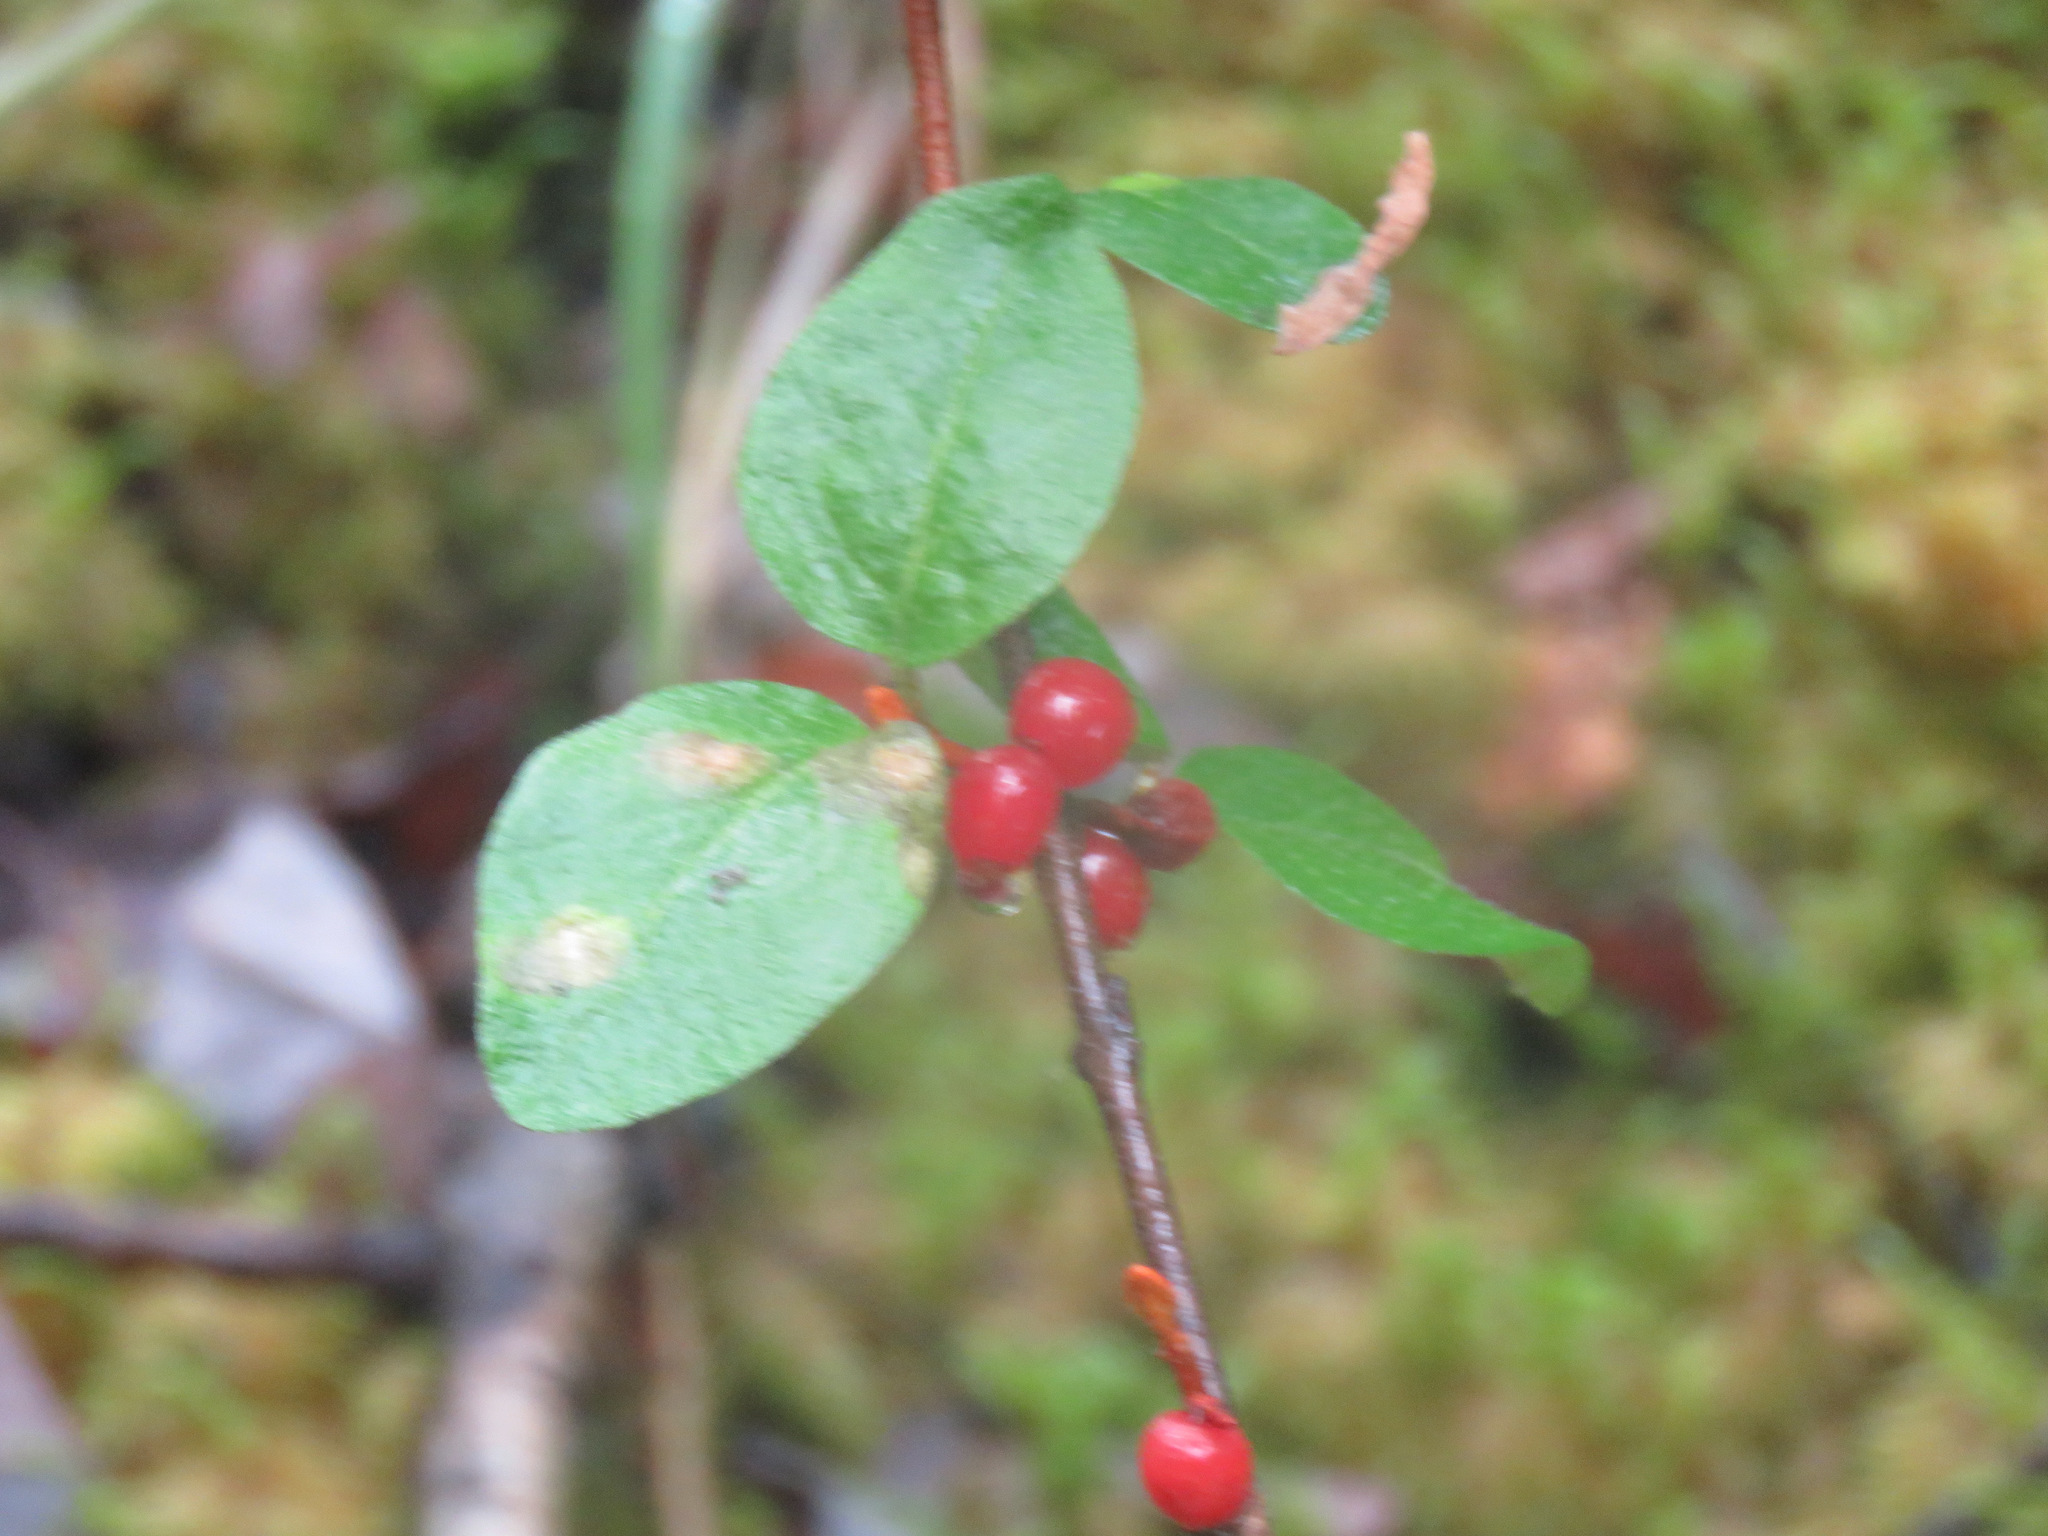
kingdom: Plantae
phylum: Tracheophyta
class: Magnoliopsida
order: Rosales
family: Elaeagnaceae
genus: Shepherdia
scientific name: Shepherdia canadensis
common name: Soapberry
